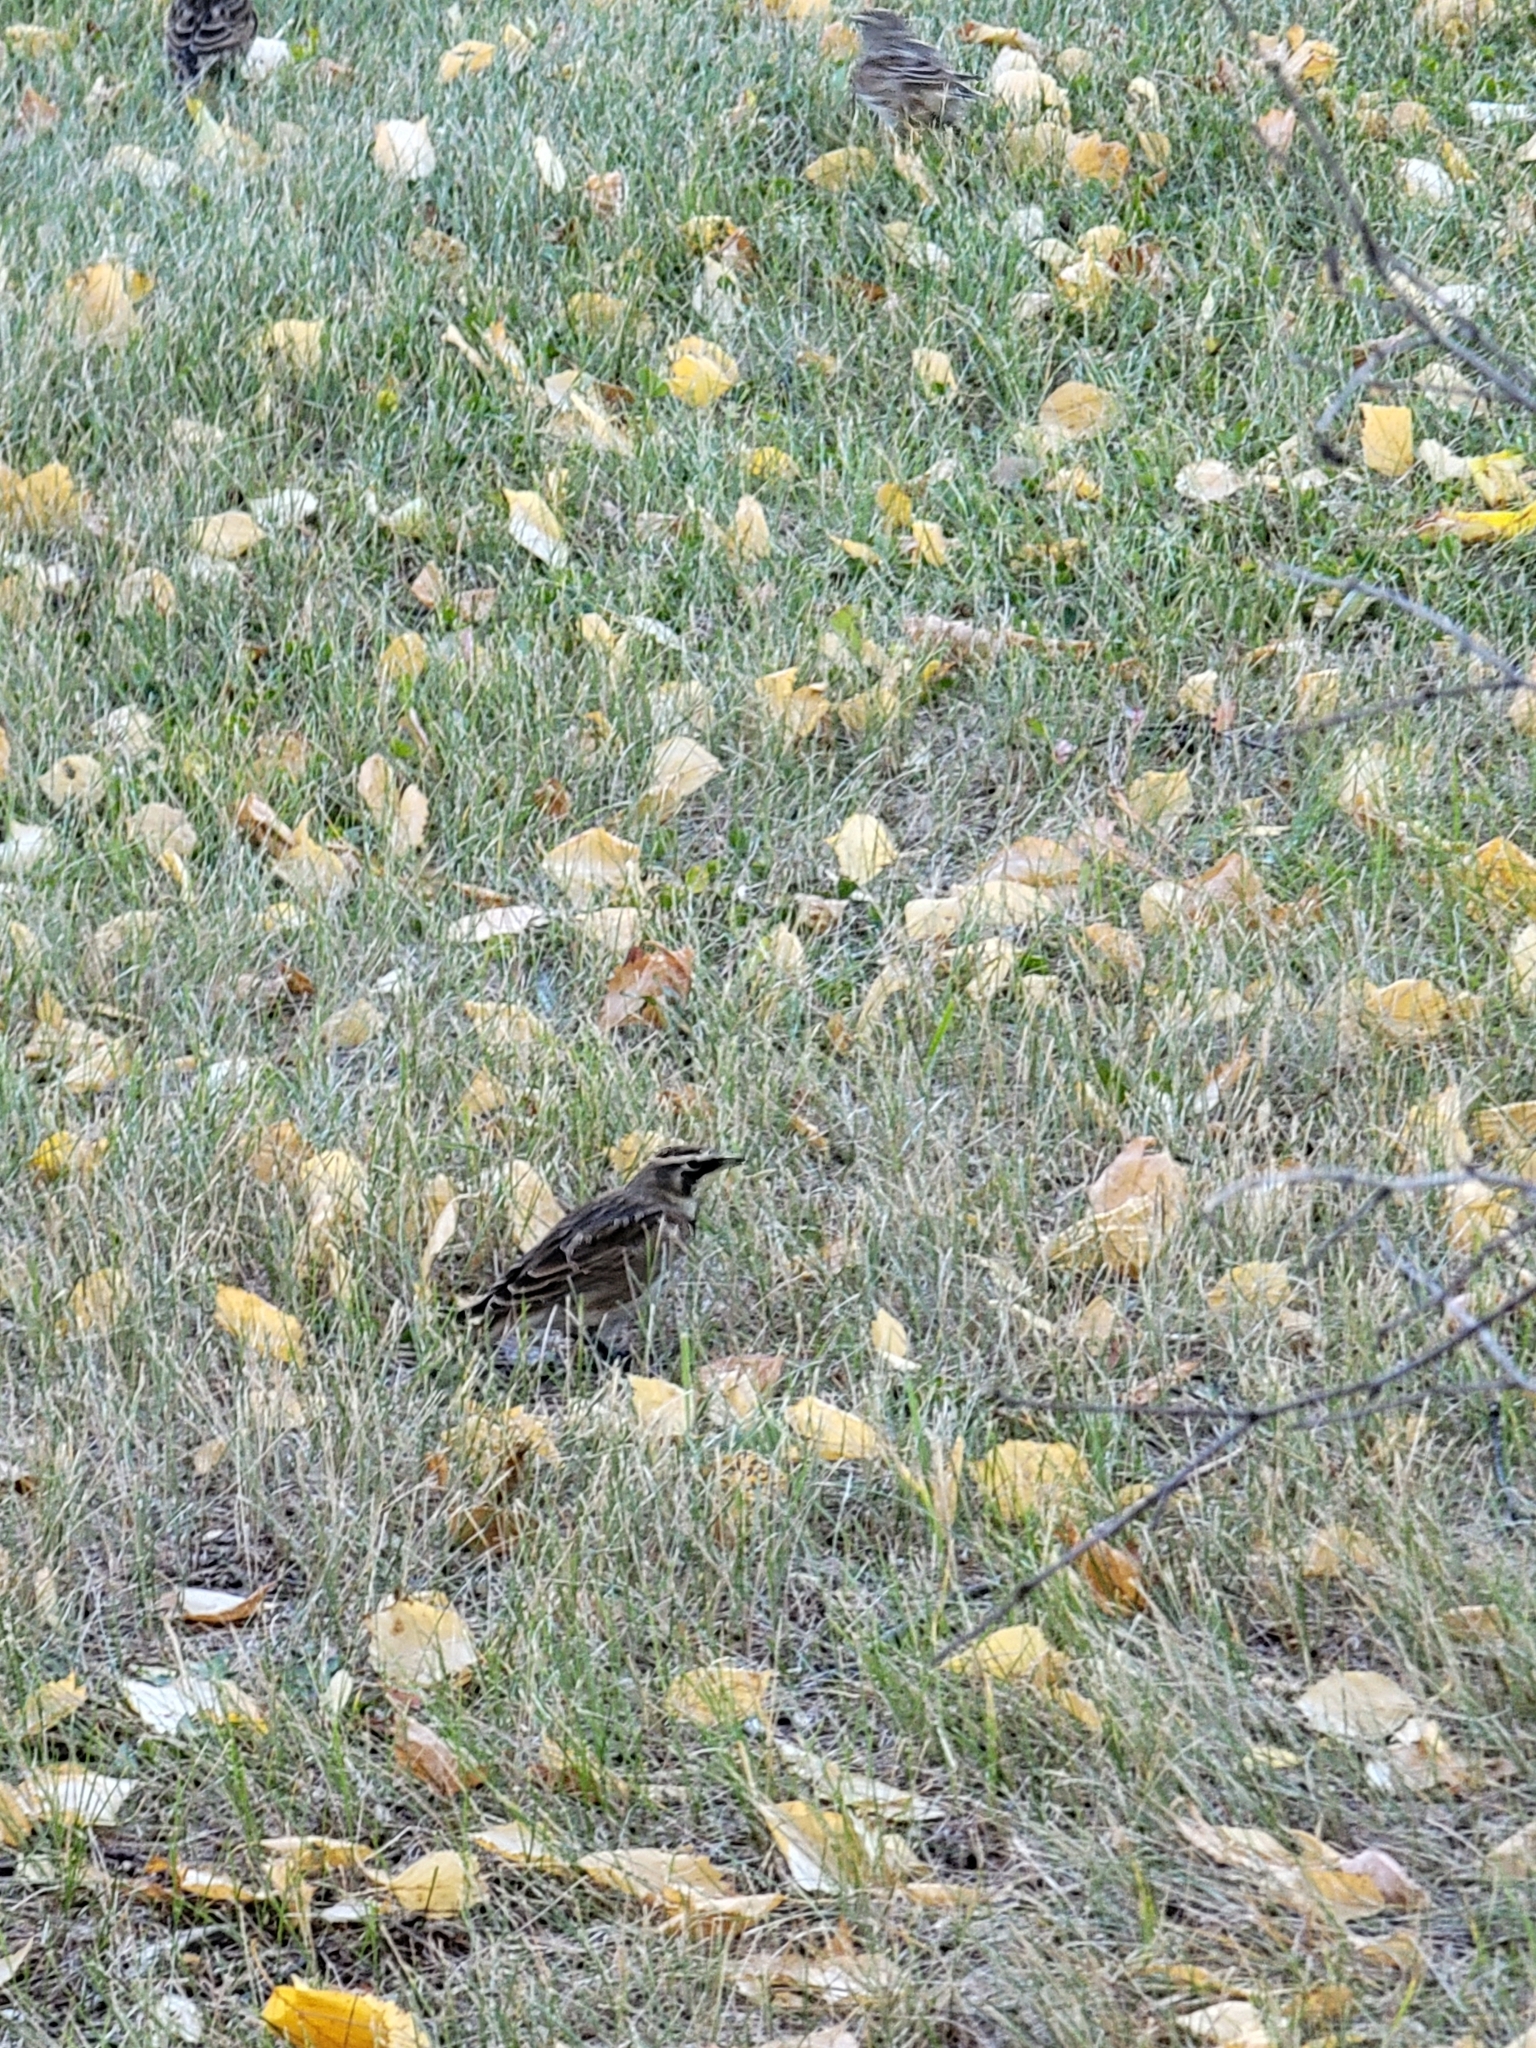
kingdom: Animalia
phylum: Chordata
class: Aves
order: Passeriformes
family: Alaudidae
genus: Eremophila
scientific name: Eremophila alpestris
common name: Horned lark
